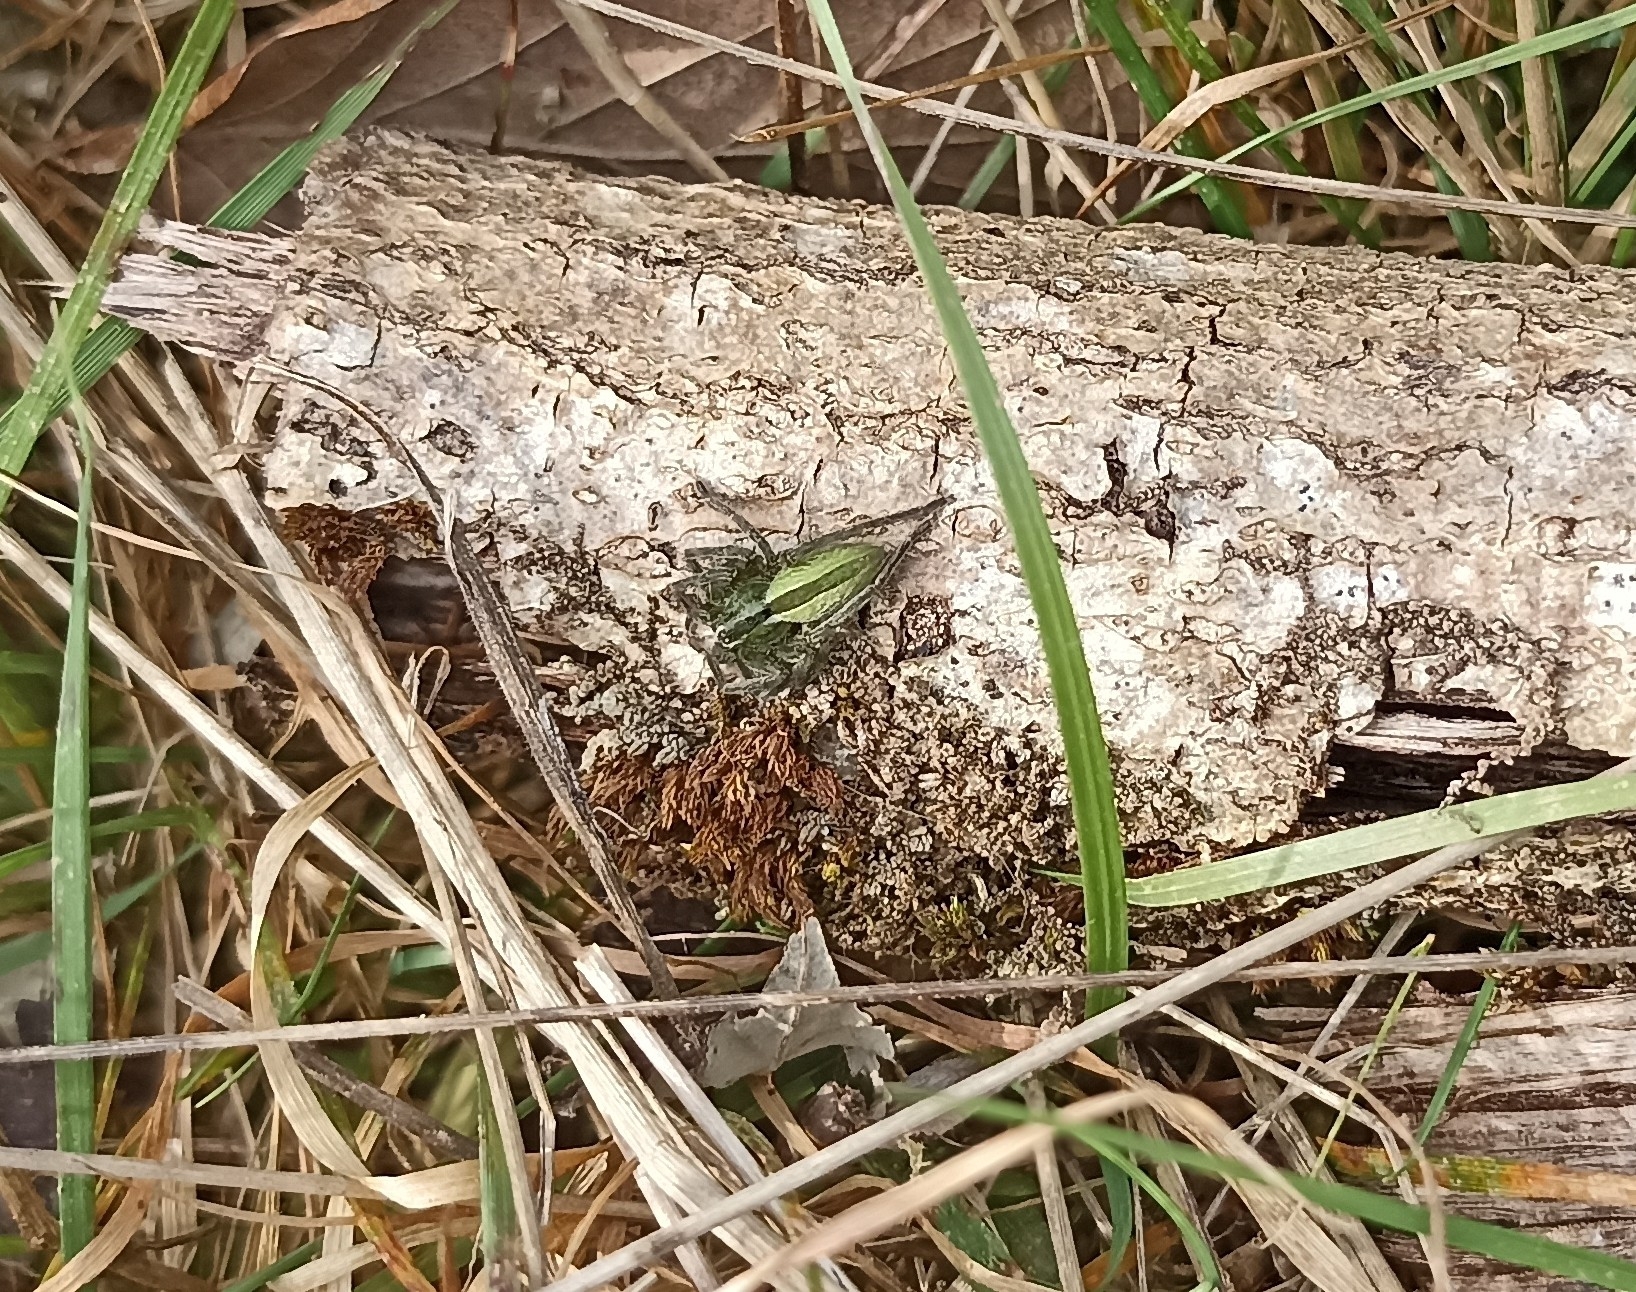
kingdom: Animalia
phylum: Arthropoda
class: Arachnida
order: Araneae
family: Sparassidae
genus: Micrommata
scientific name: Micrommata ligurina
